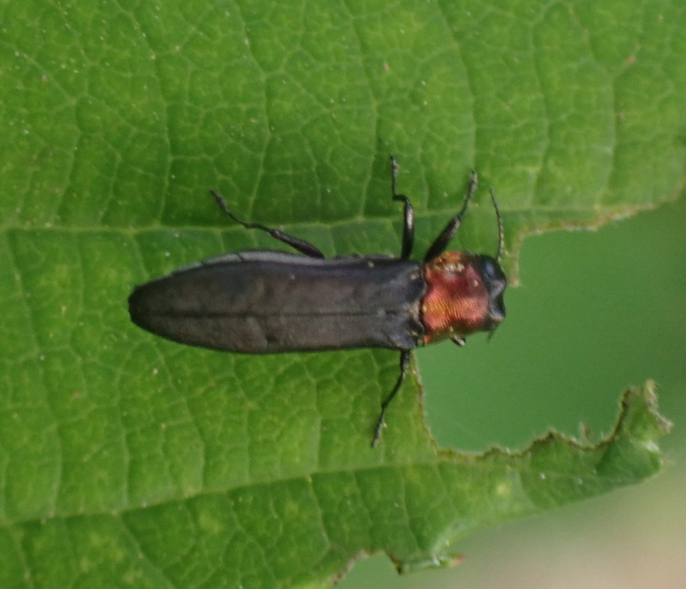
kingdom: Animalia
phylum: Arthropoda
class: Insecta
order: Coleoptera
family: Buprestidae
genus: Agrilus
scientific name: Agrilus ruficollis
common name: Red-necked cane borer beetle
